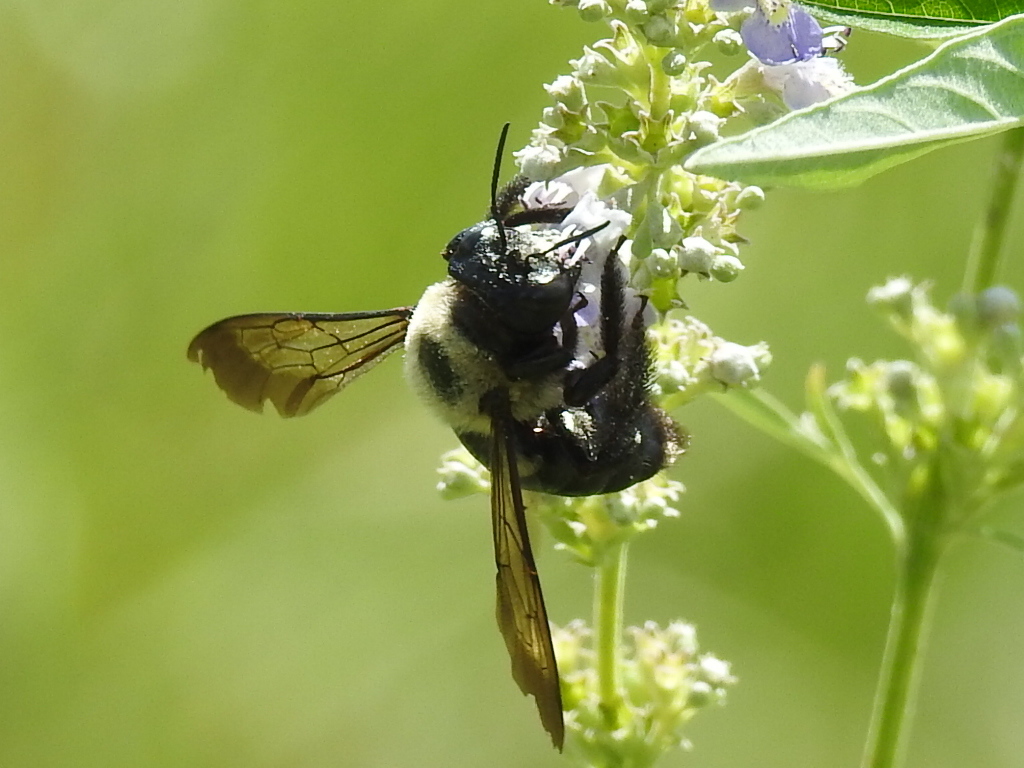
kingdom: Animalia
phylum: Arthropoda
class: Insecta
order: Hymenoptera
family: Apidae
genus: Xylocopa
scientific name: Xylocopa virginica
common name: Carpenter bee
